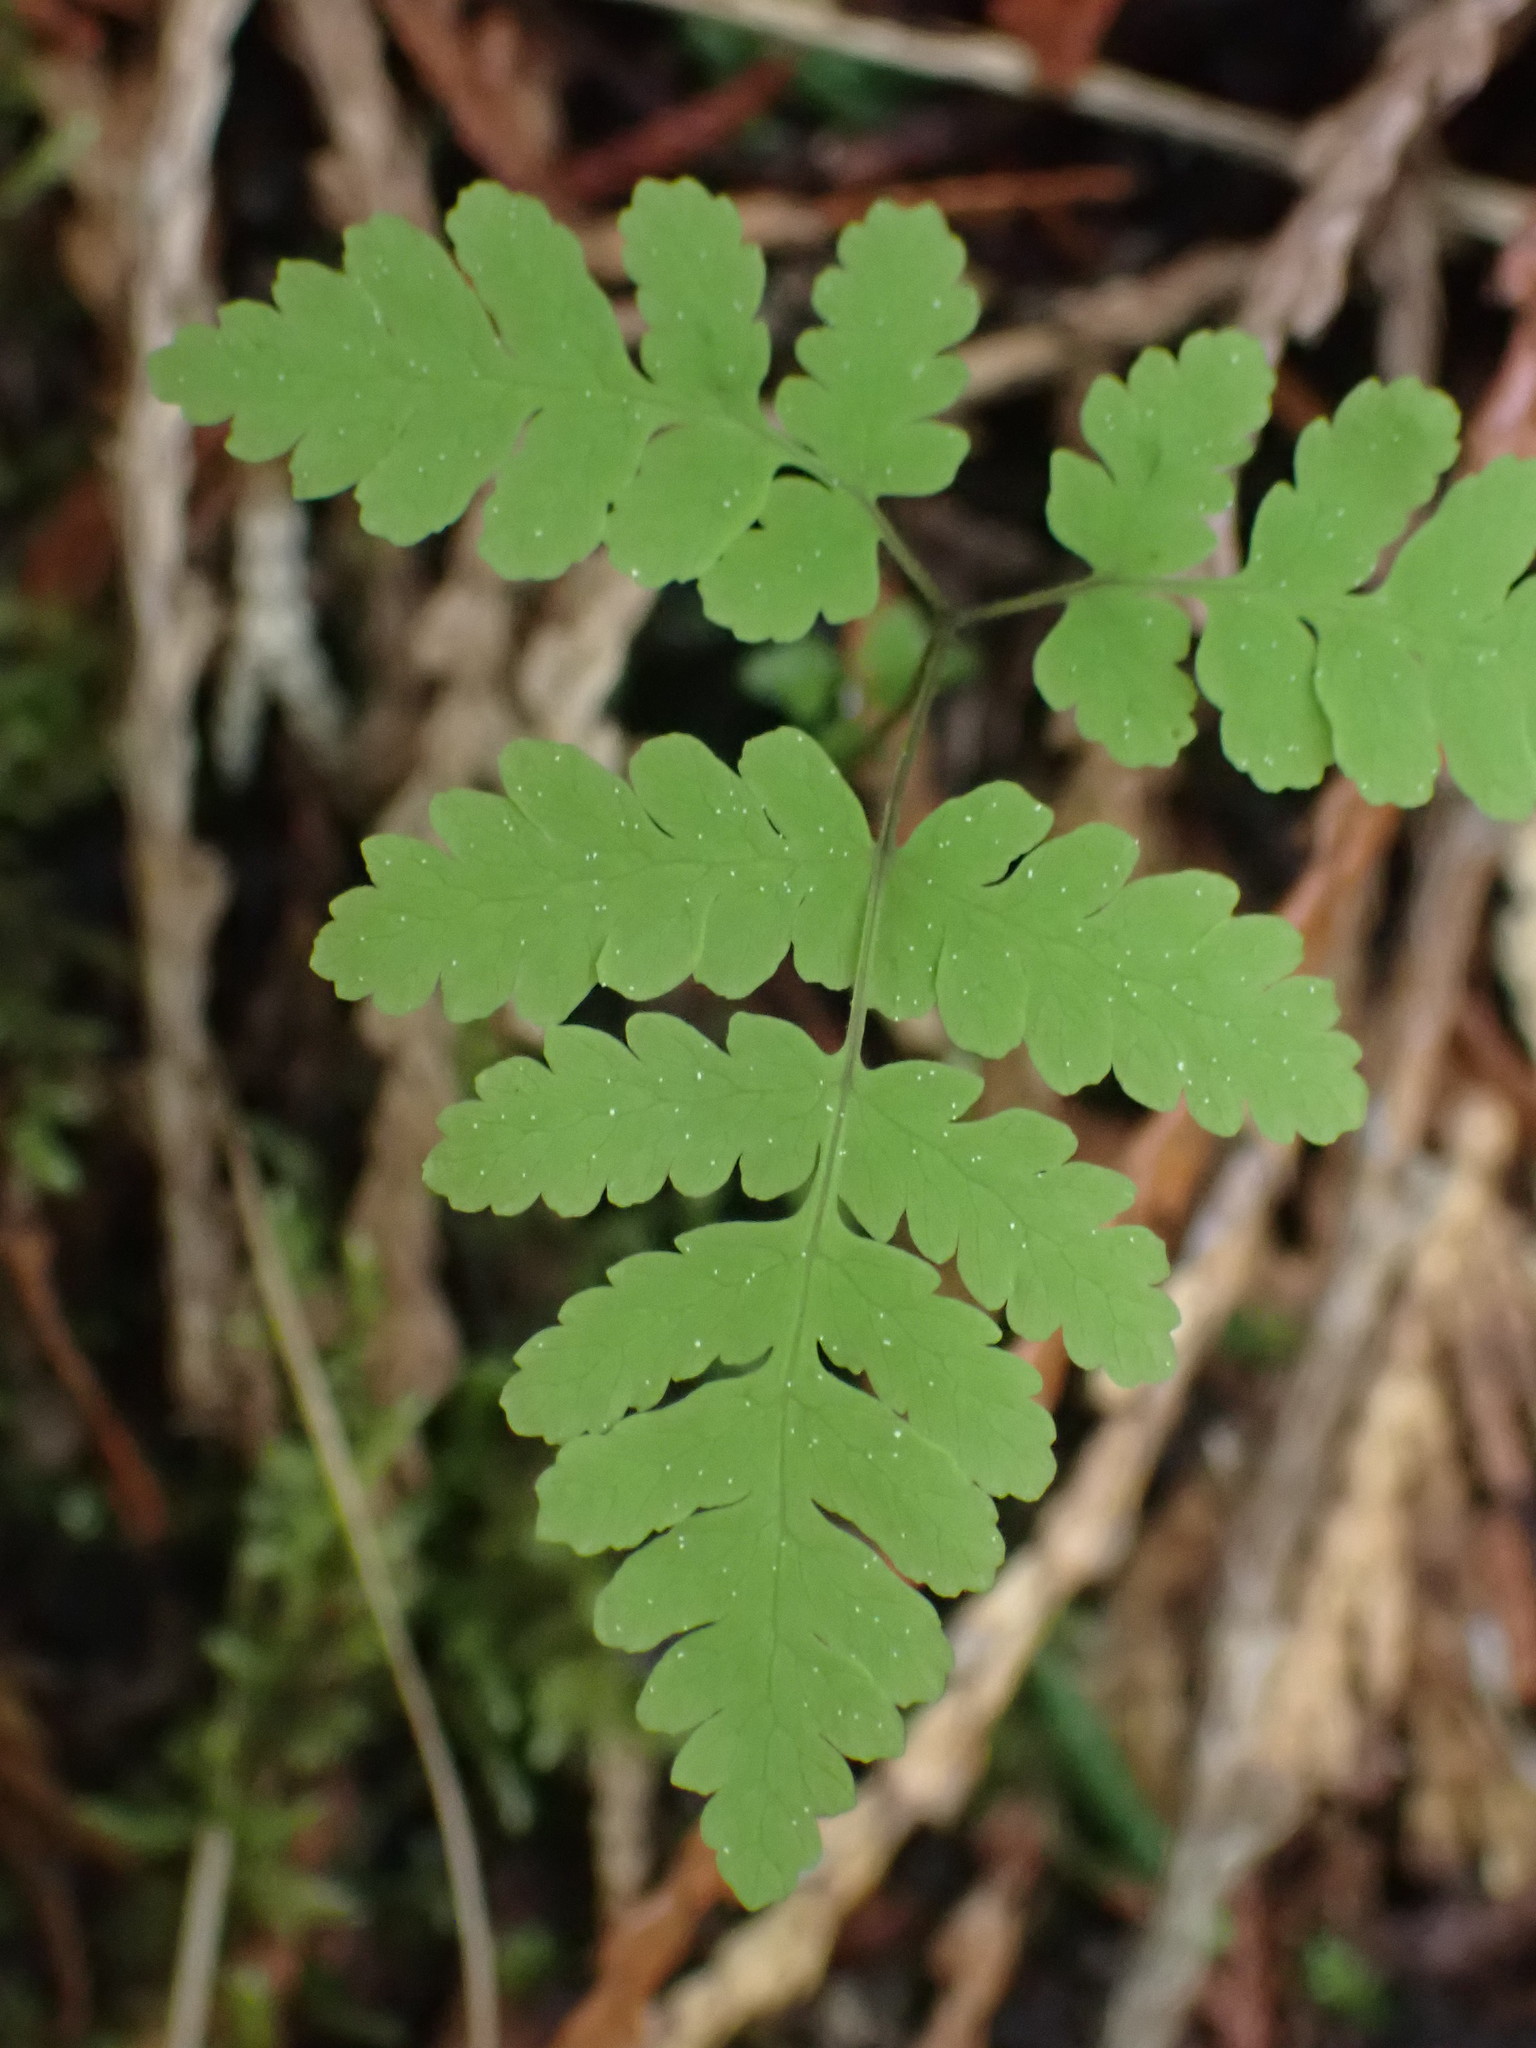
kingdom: Plantae
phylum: Tracheophyta
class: Polypodiopsida
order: Polypodiales
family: Cystopteridaceae
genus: Gymnocarpium
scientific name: Gymnocarpium dryopteris
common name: Oak fern
